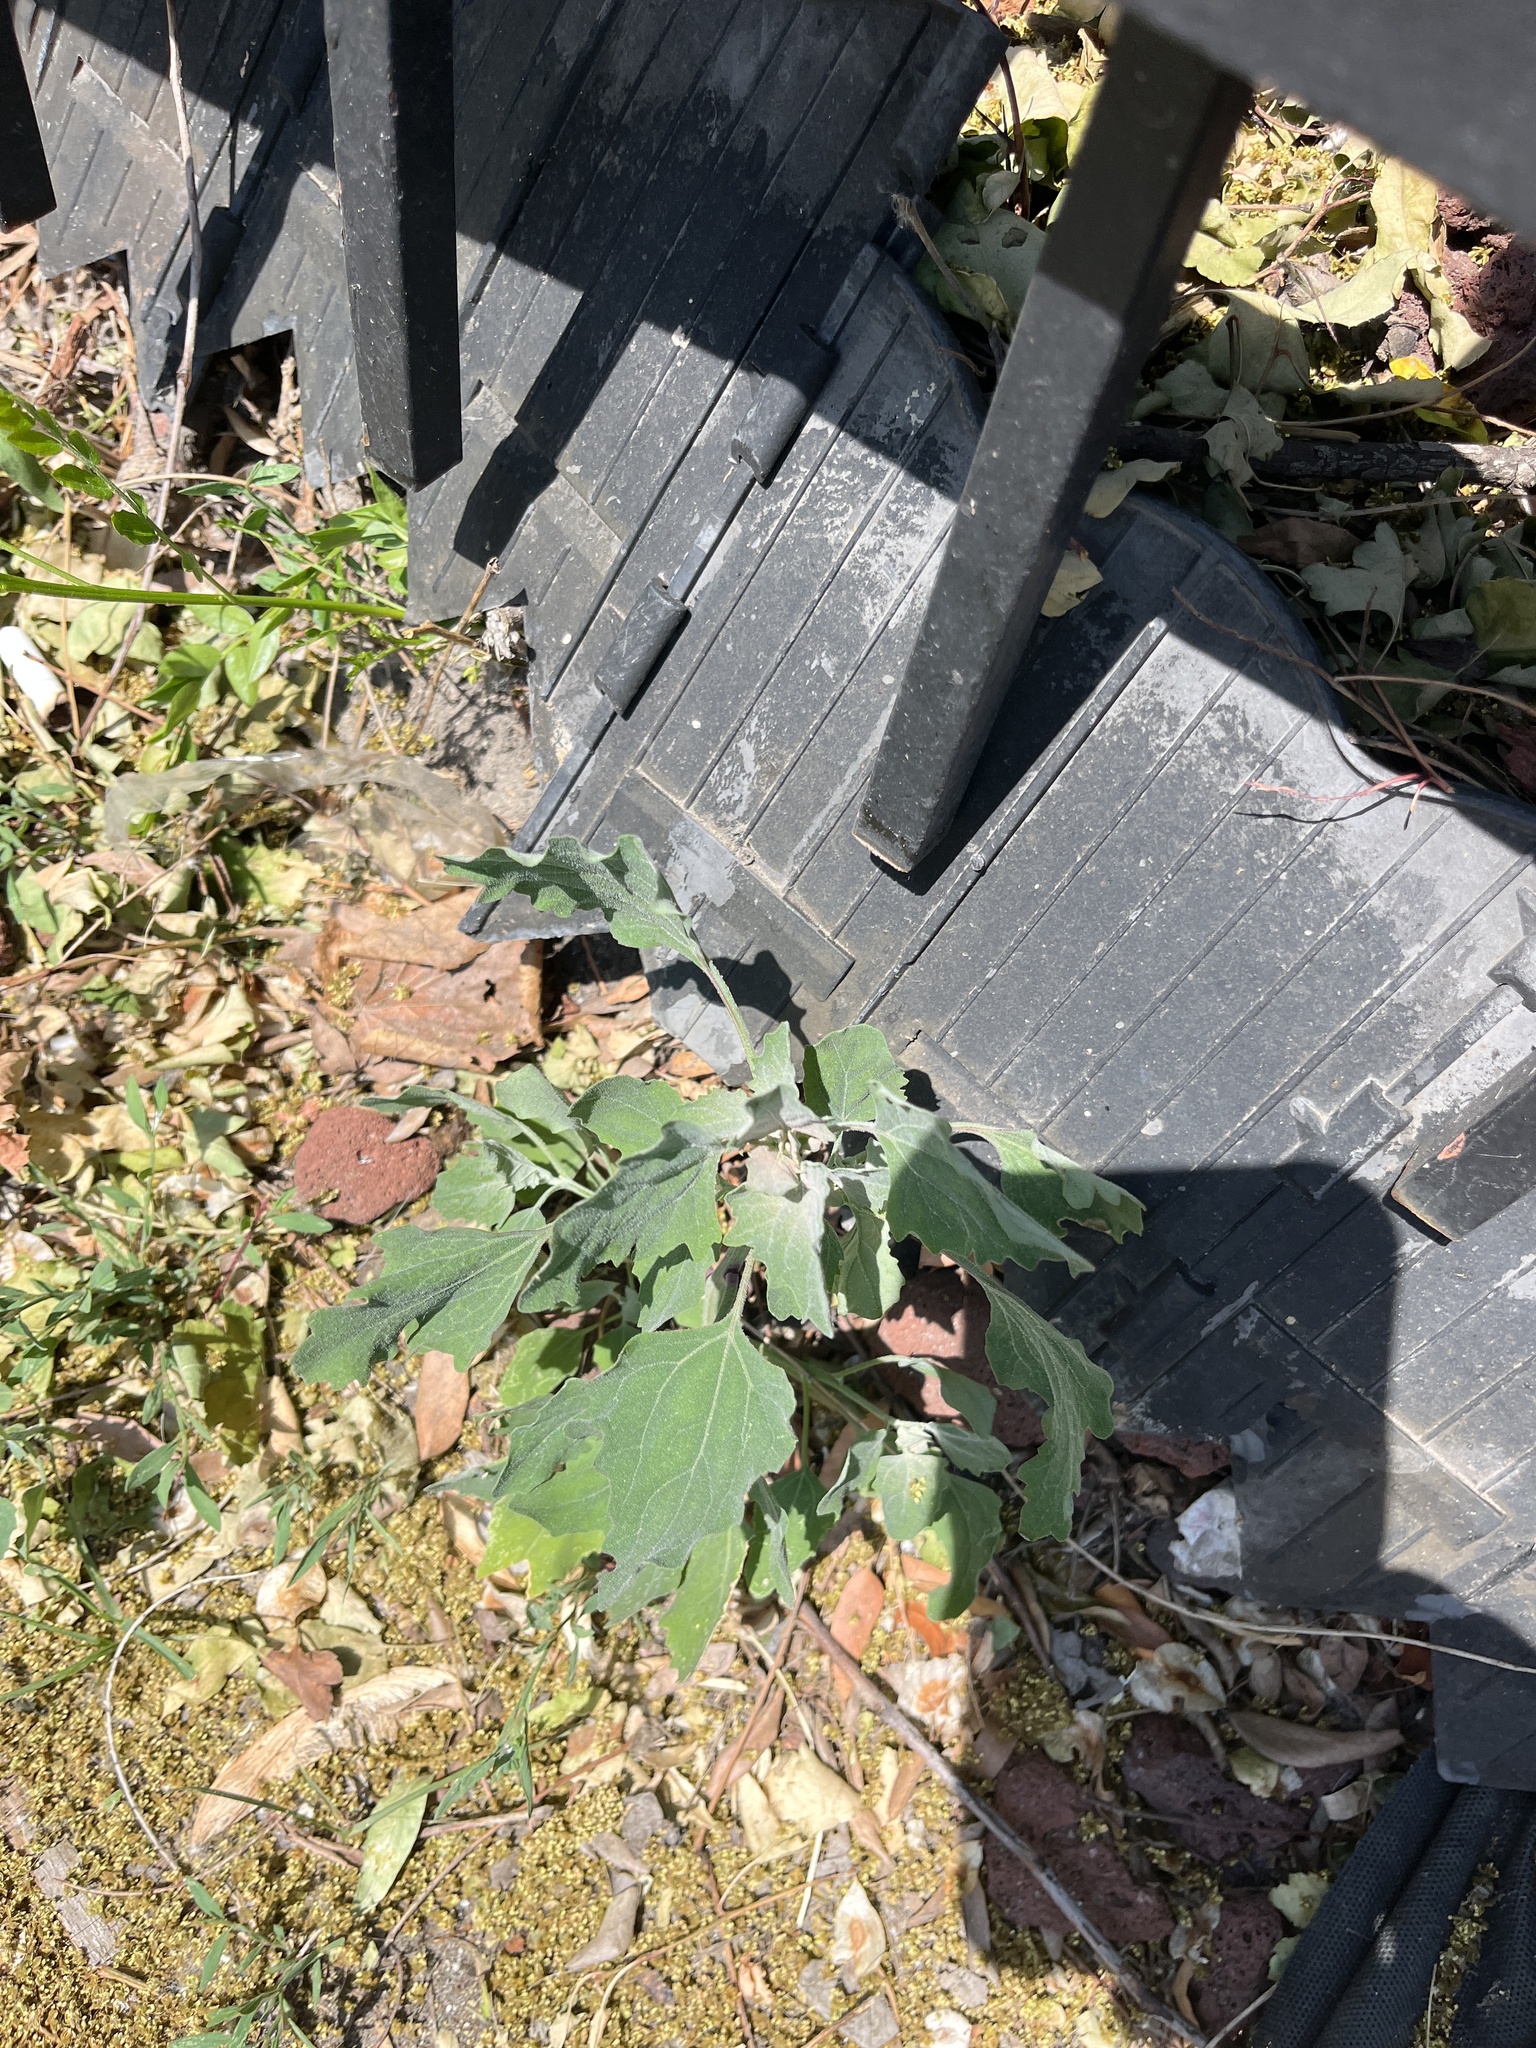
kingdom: Plantae
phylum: Tracheophyta
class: Magnoliopsida
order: Caryophyllales
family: Amaranthaceae
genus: Chenopodium
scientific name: Chenopodium album
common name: Fat-hen
